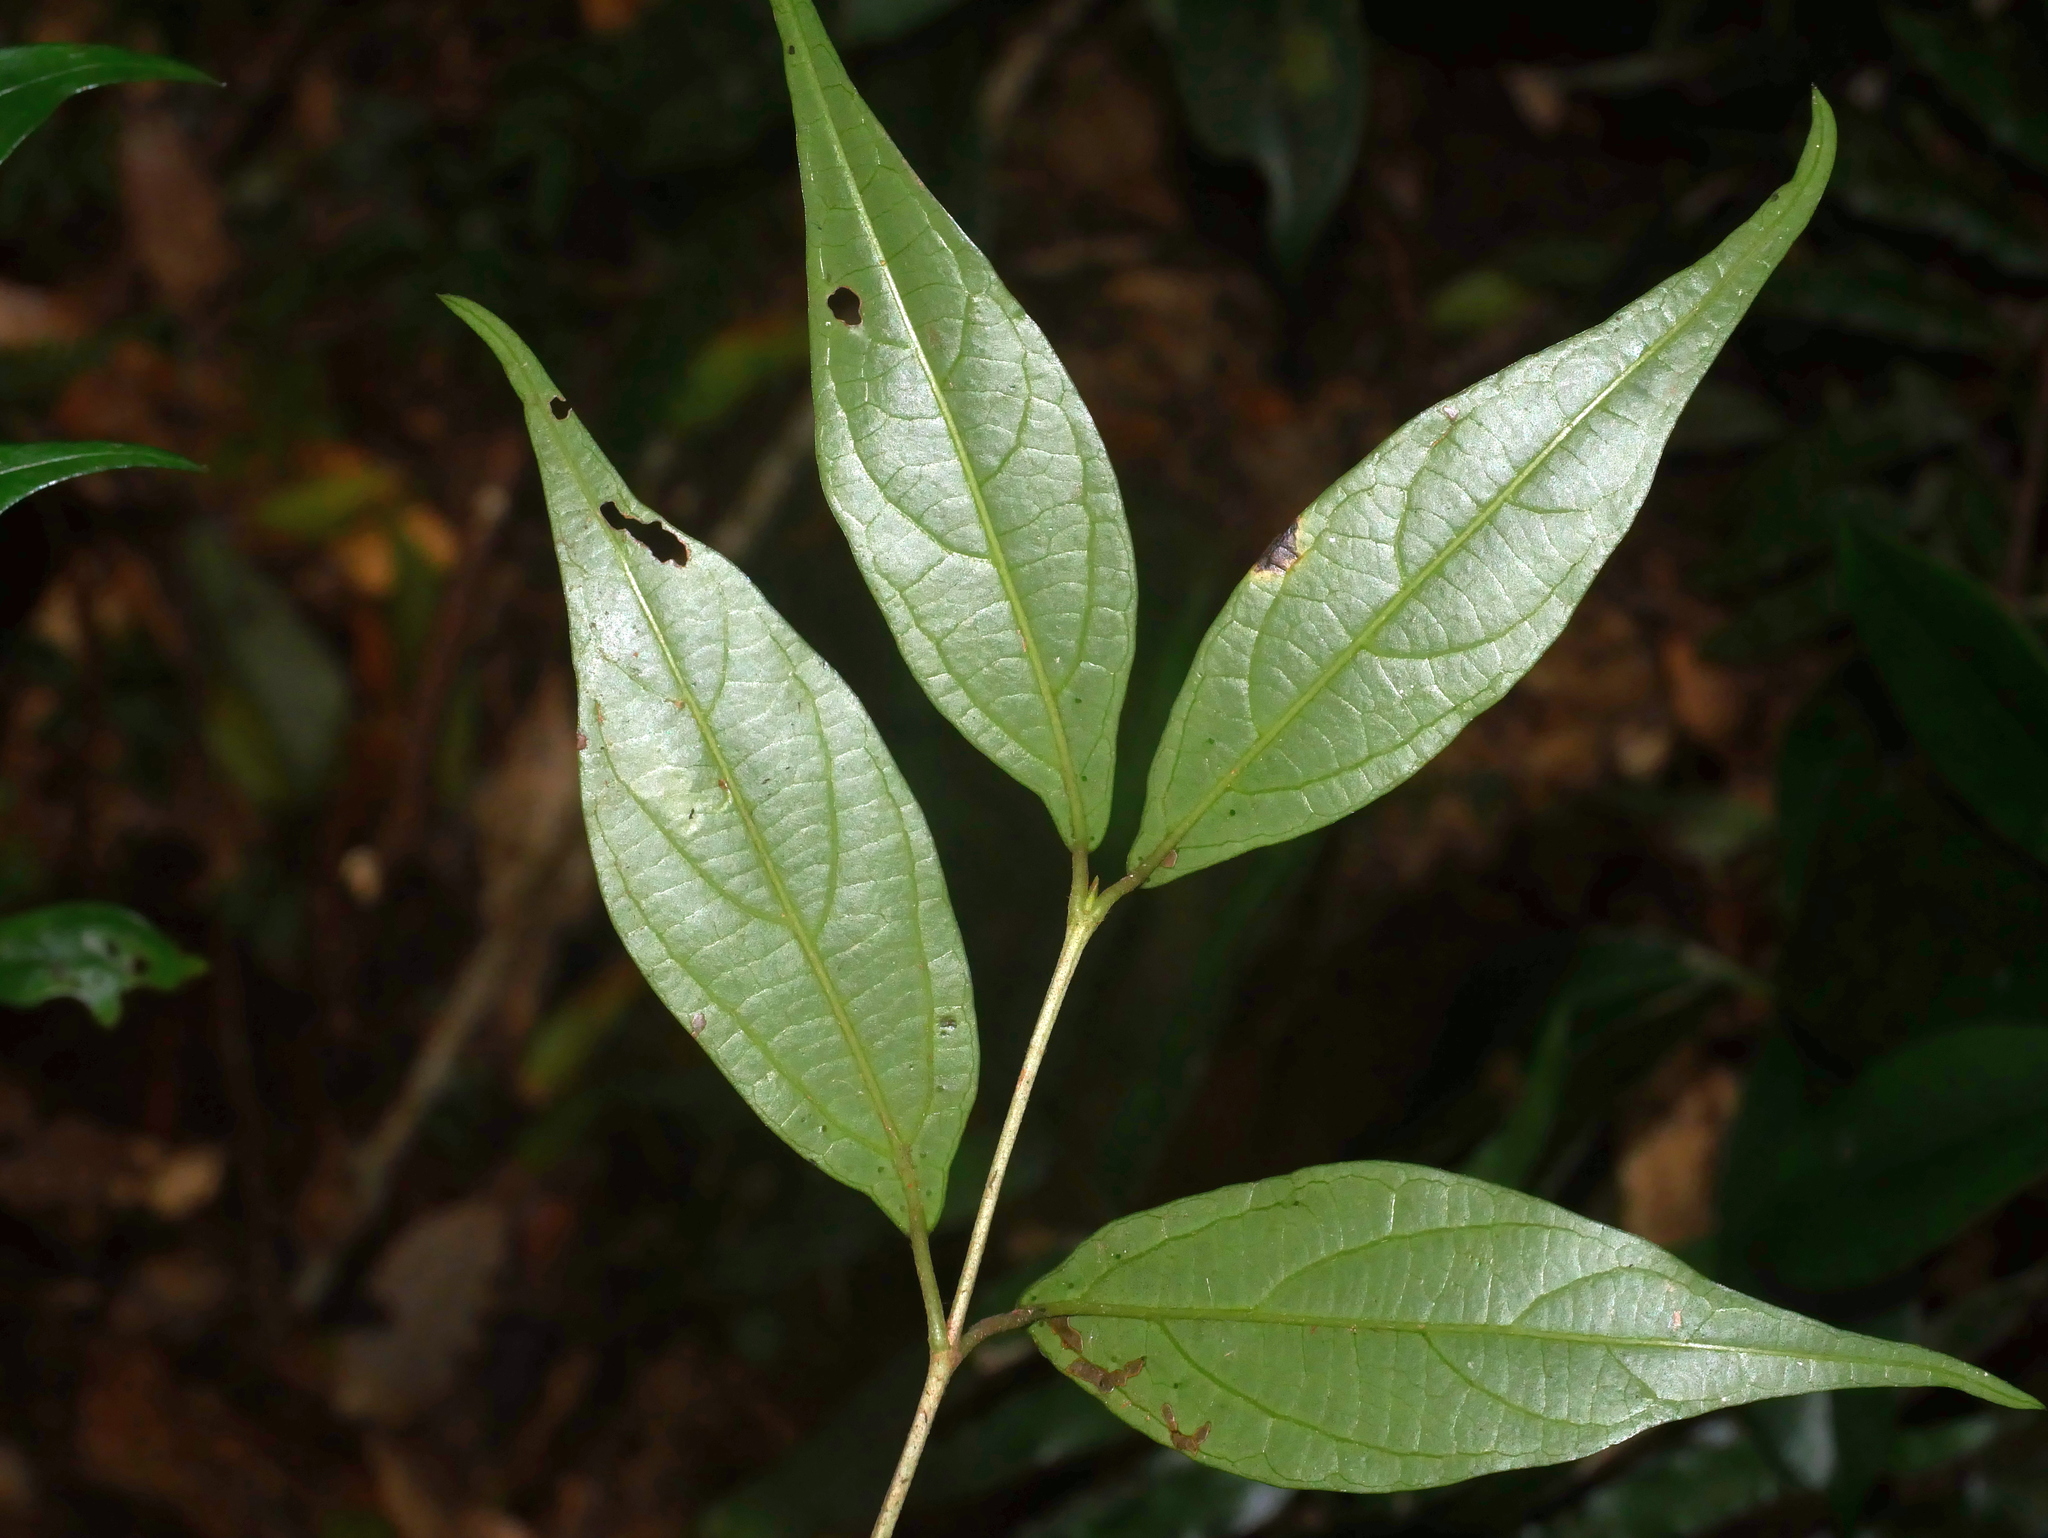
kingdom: Plantae
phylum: Tracheophyta
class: Magnoliopsida
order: Dipsacales
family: Viburnaceae
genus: Viburnum
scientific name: Viburnum integrifolium
